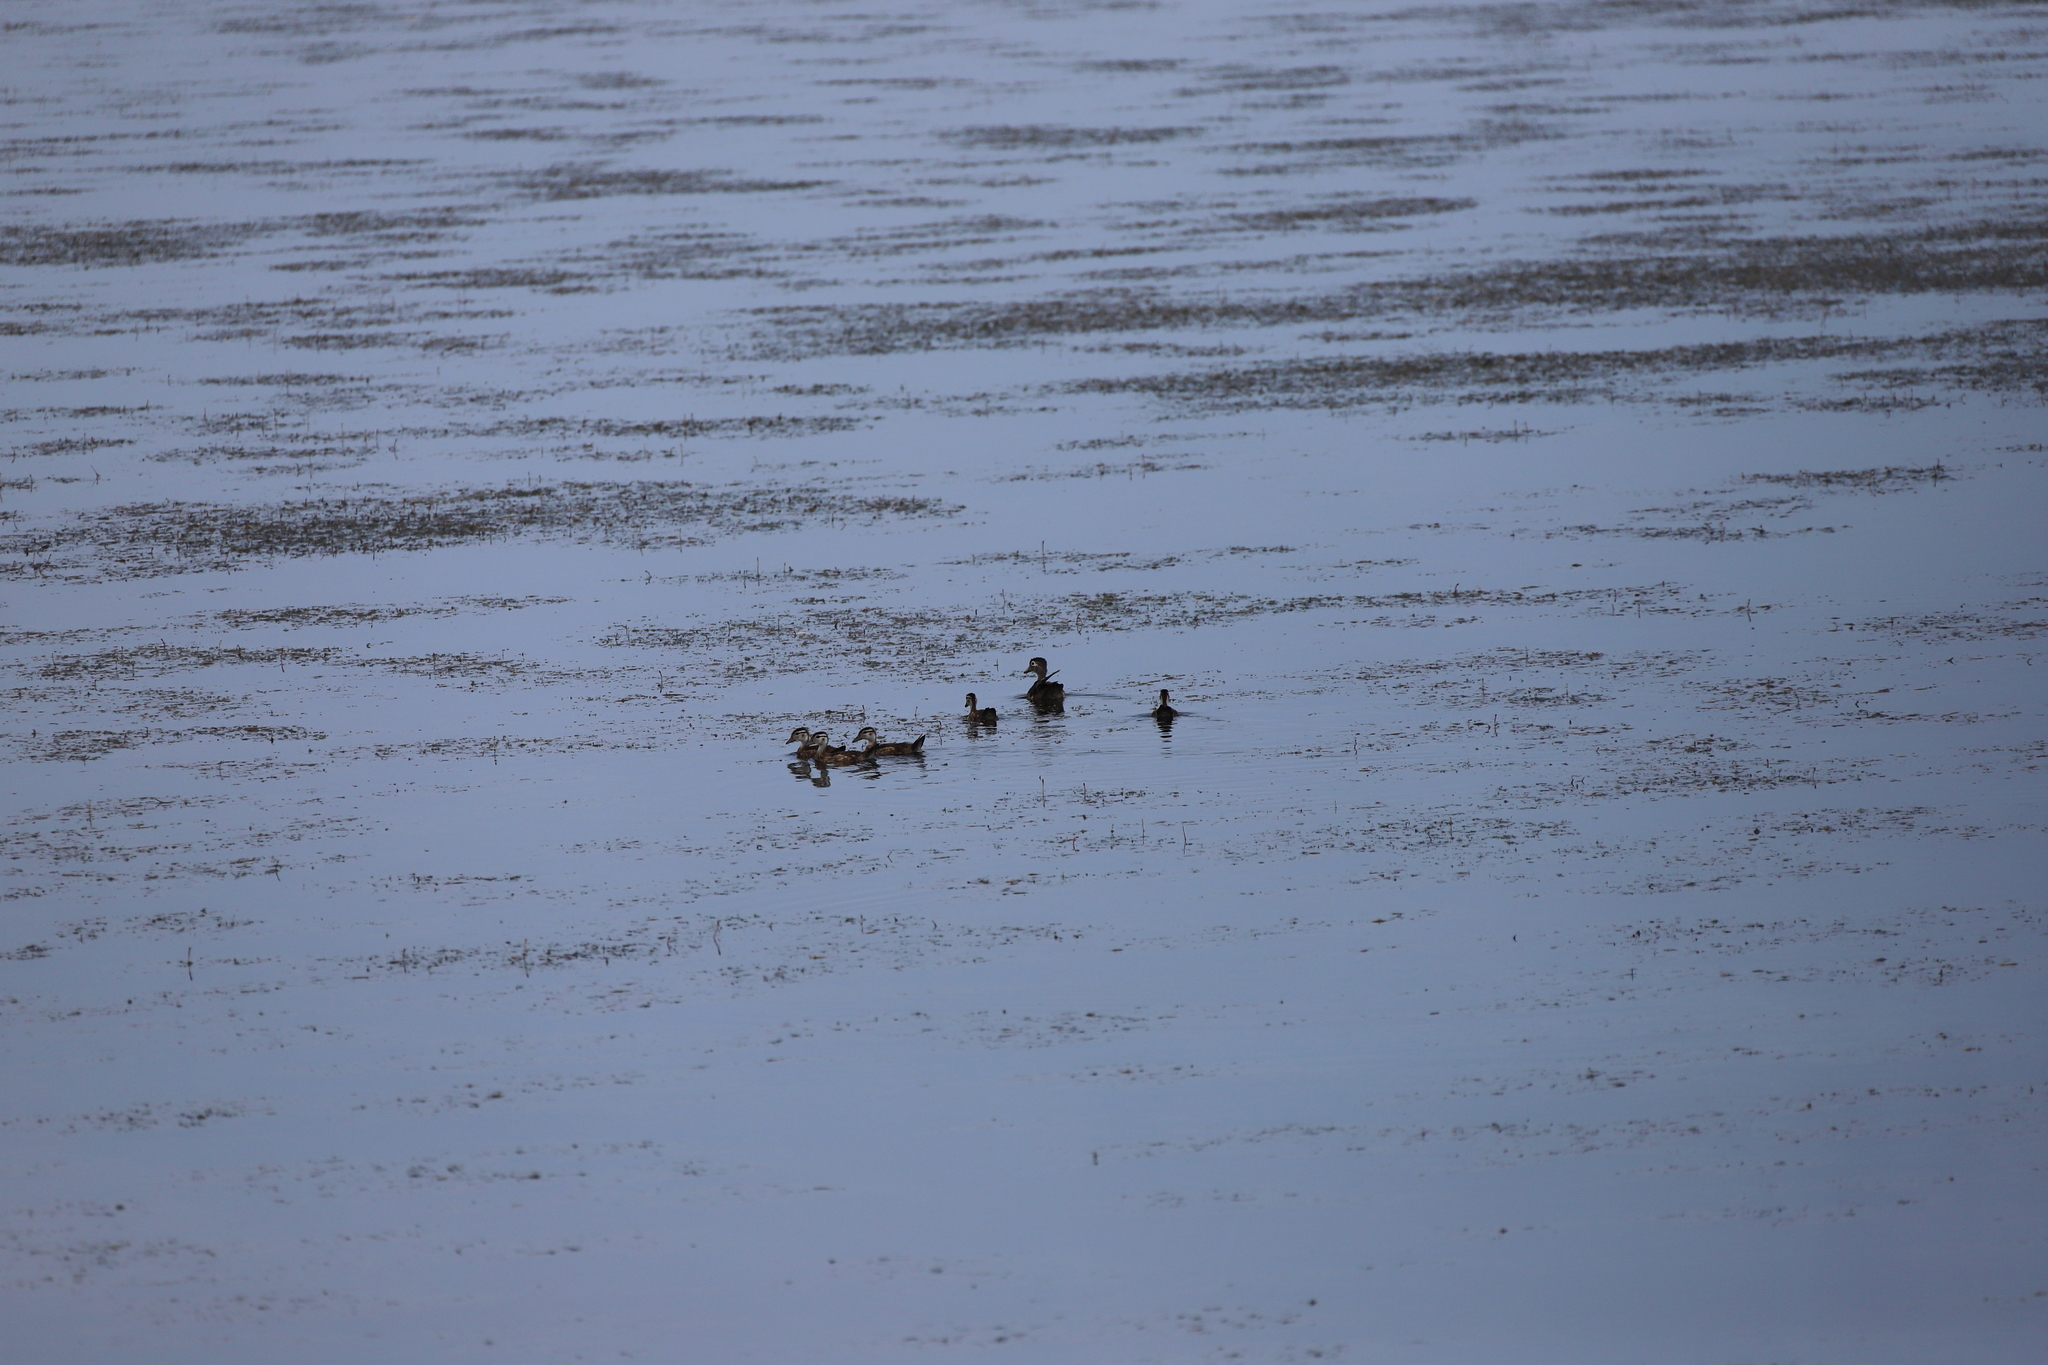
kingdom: Animalia
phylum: Chordata
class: Aves
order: Anseriformes
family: Anatidae
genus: Aix
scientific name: Aix sponsa
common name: Wood duck
